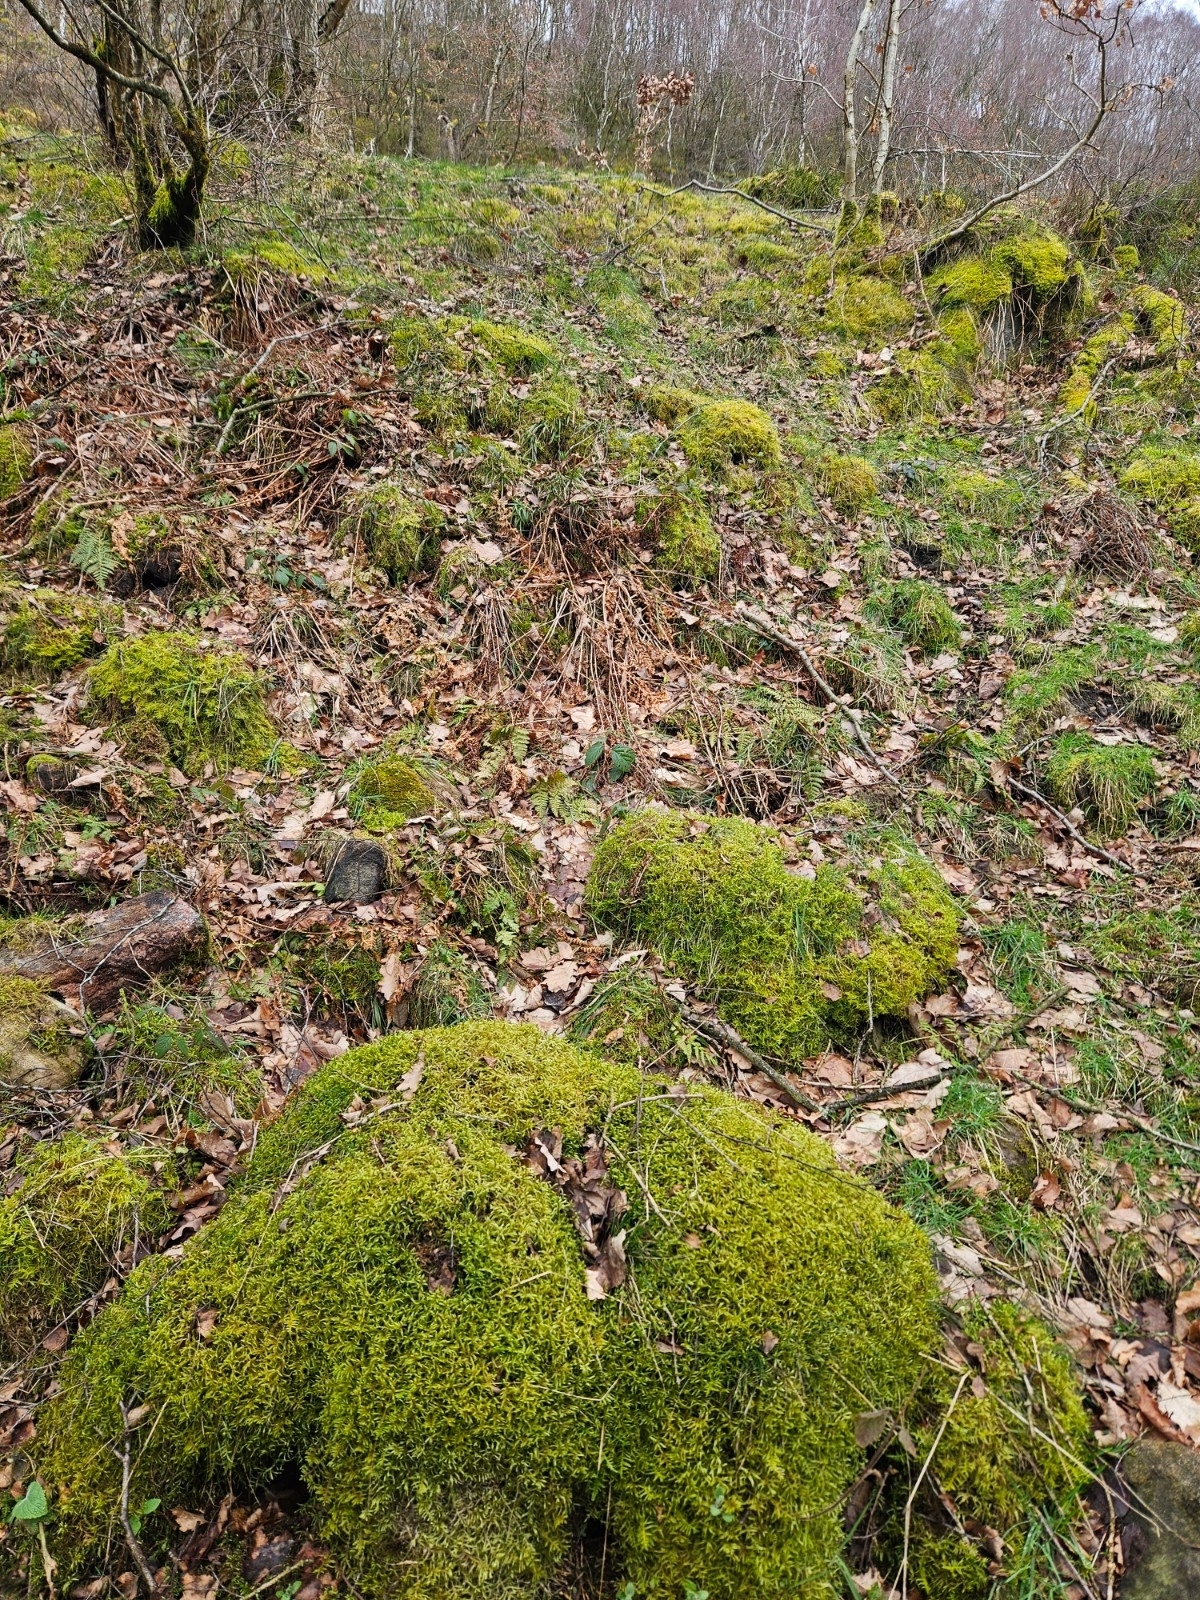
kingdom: Plantae
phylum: Bryophyta
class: Bryopsida
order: Hypnales
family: Hylocomiaceae
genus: Pleurozium
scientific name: Pleurozium schreberi
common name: Red-stemmed feather moss
